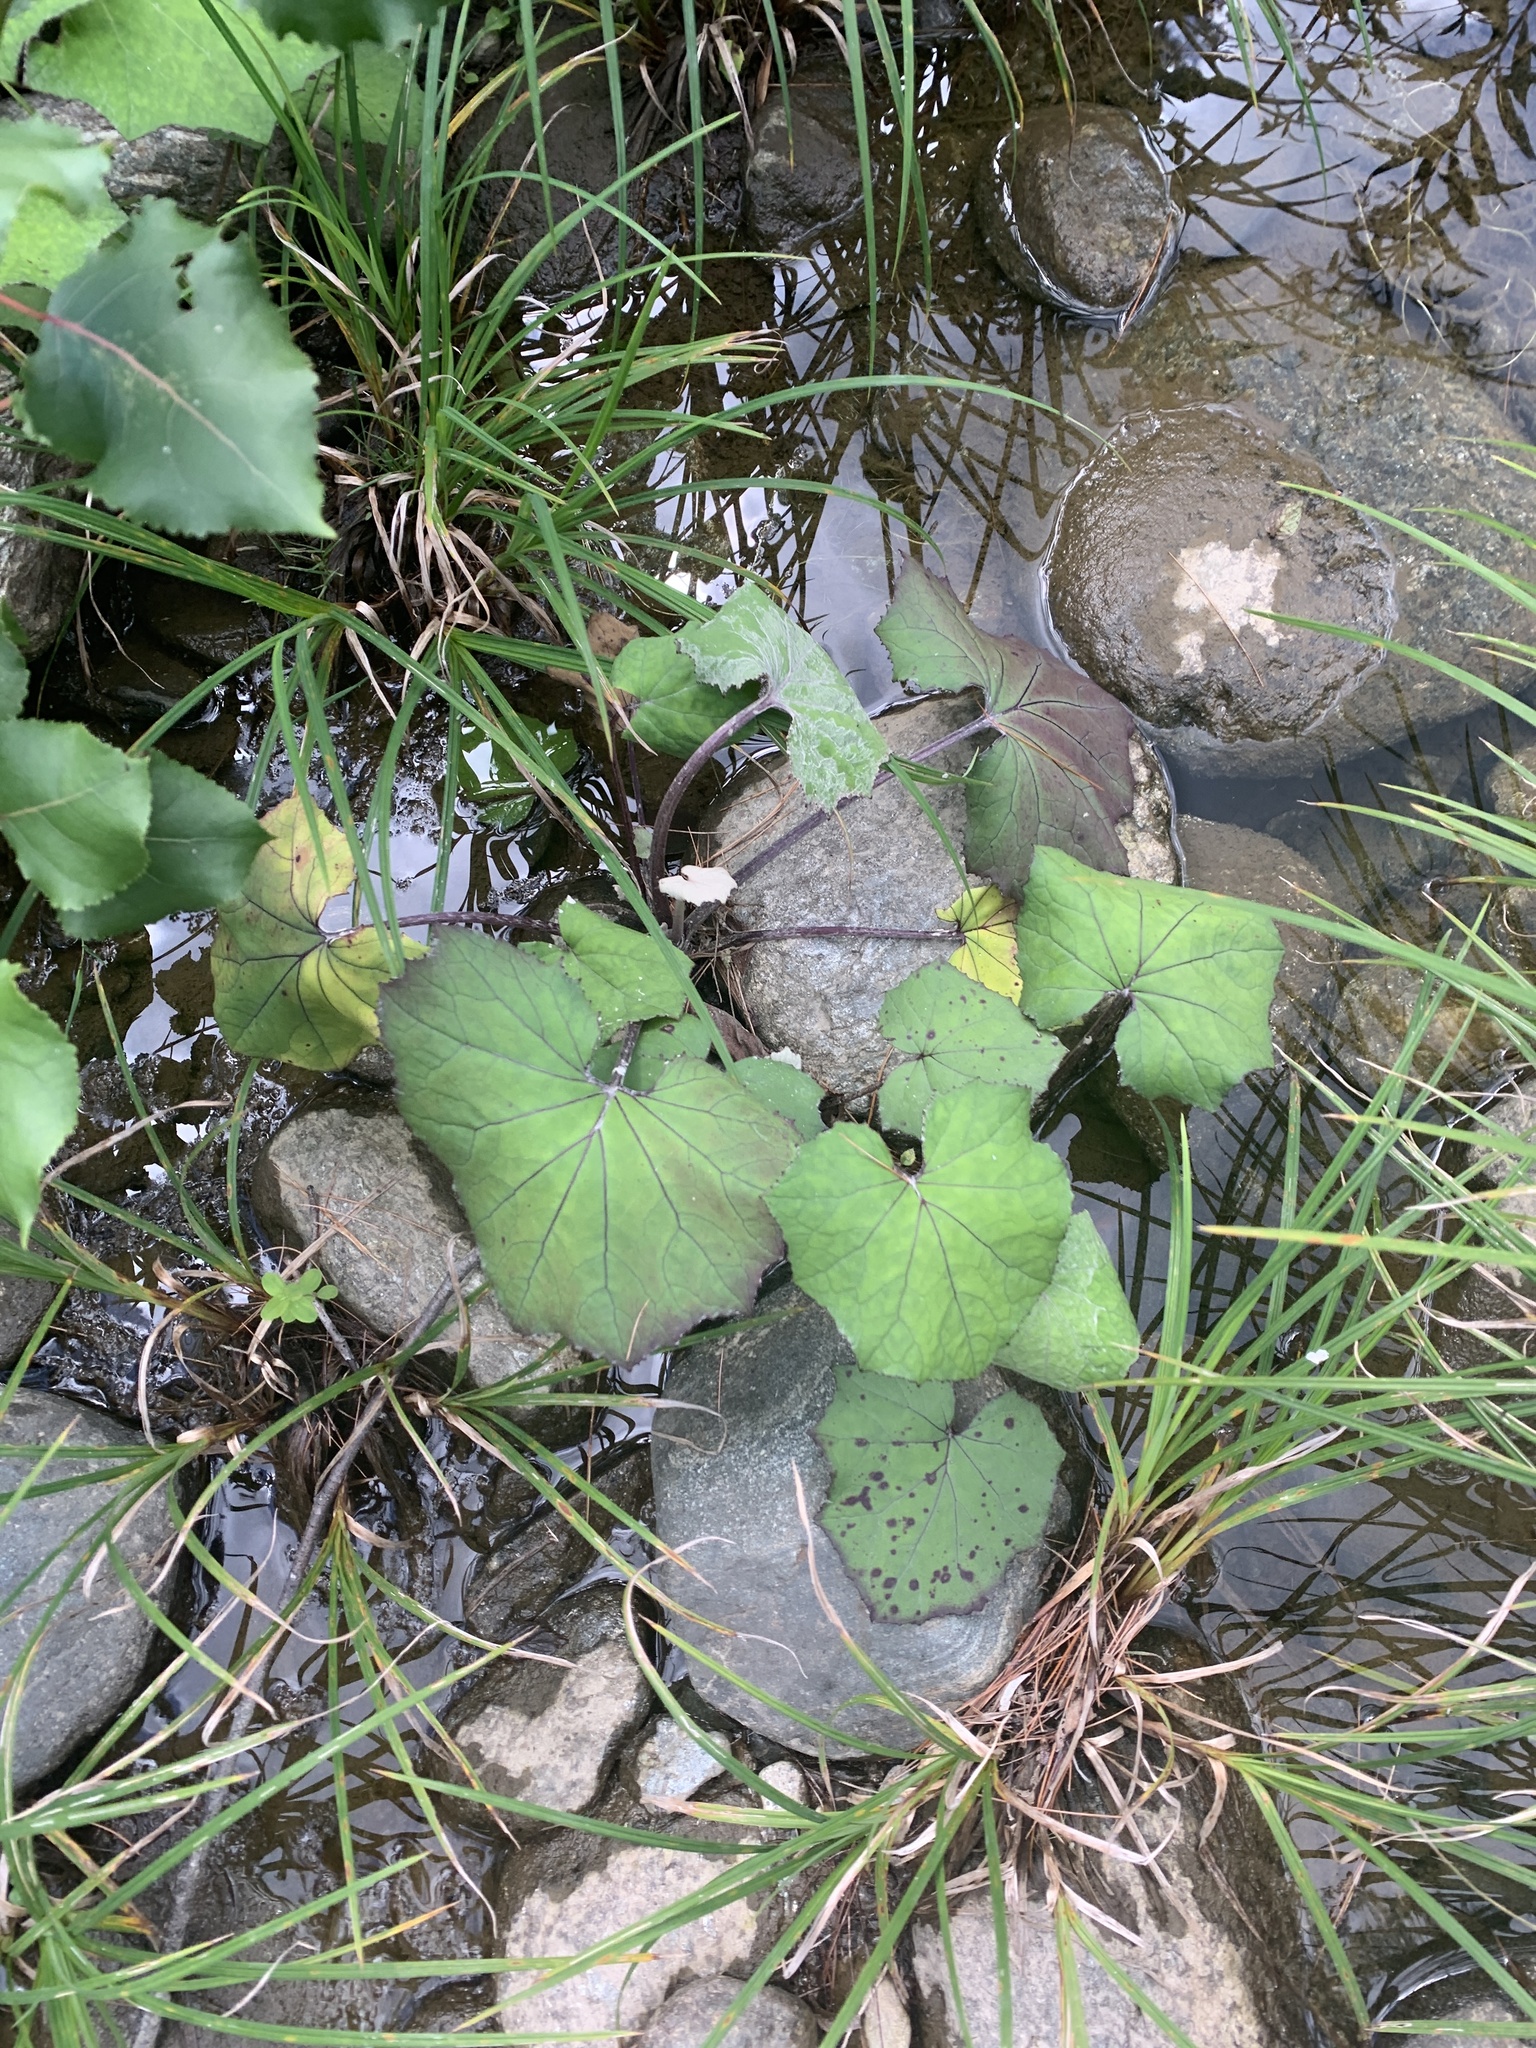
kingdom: Plantae
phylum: Tracheophyta
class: Magnoliopsida
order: Asterales
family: Asteraceae
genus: Tussilago
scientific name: Tussilago farfara
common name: Coltsfoot
